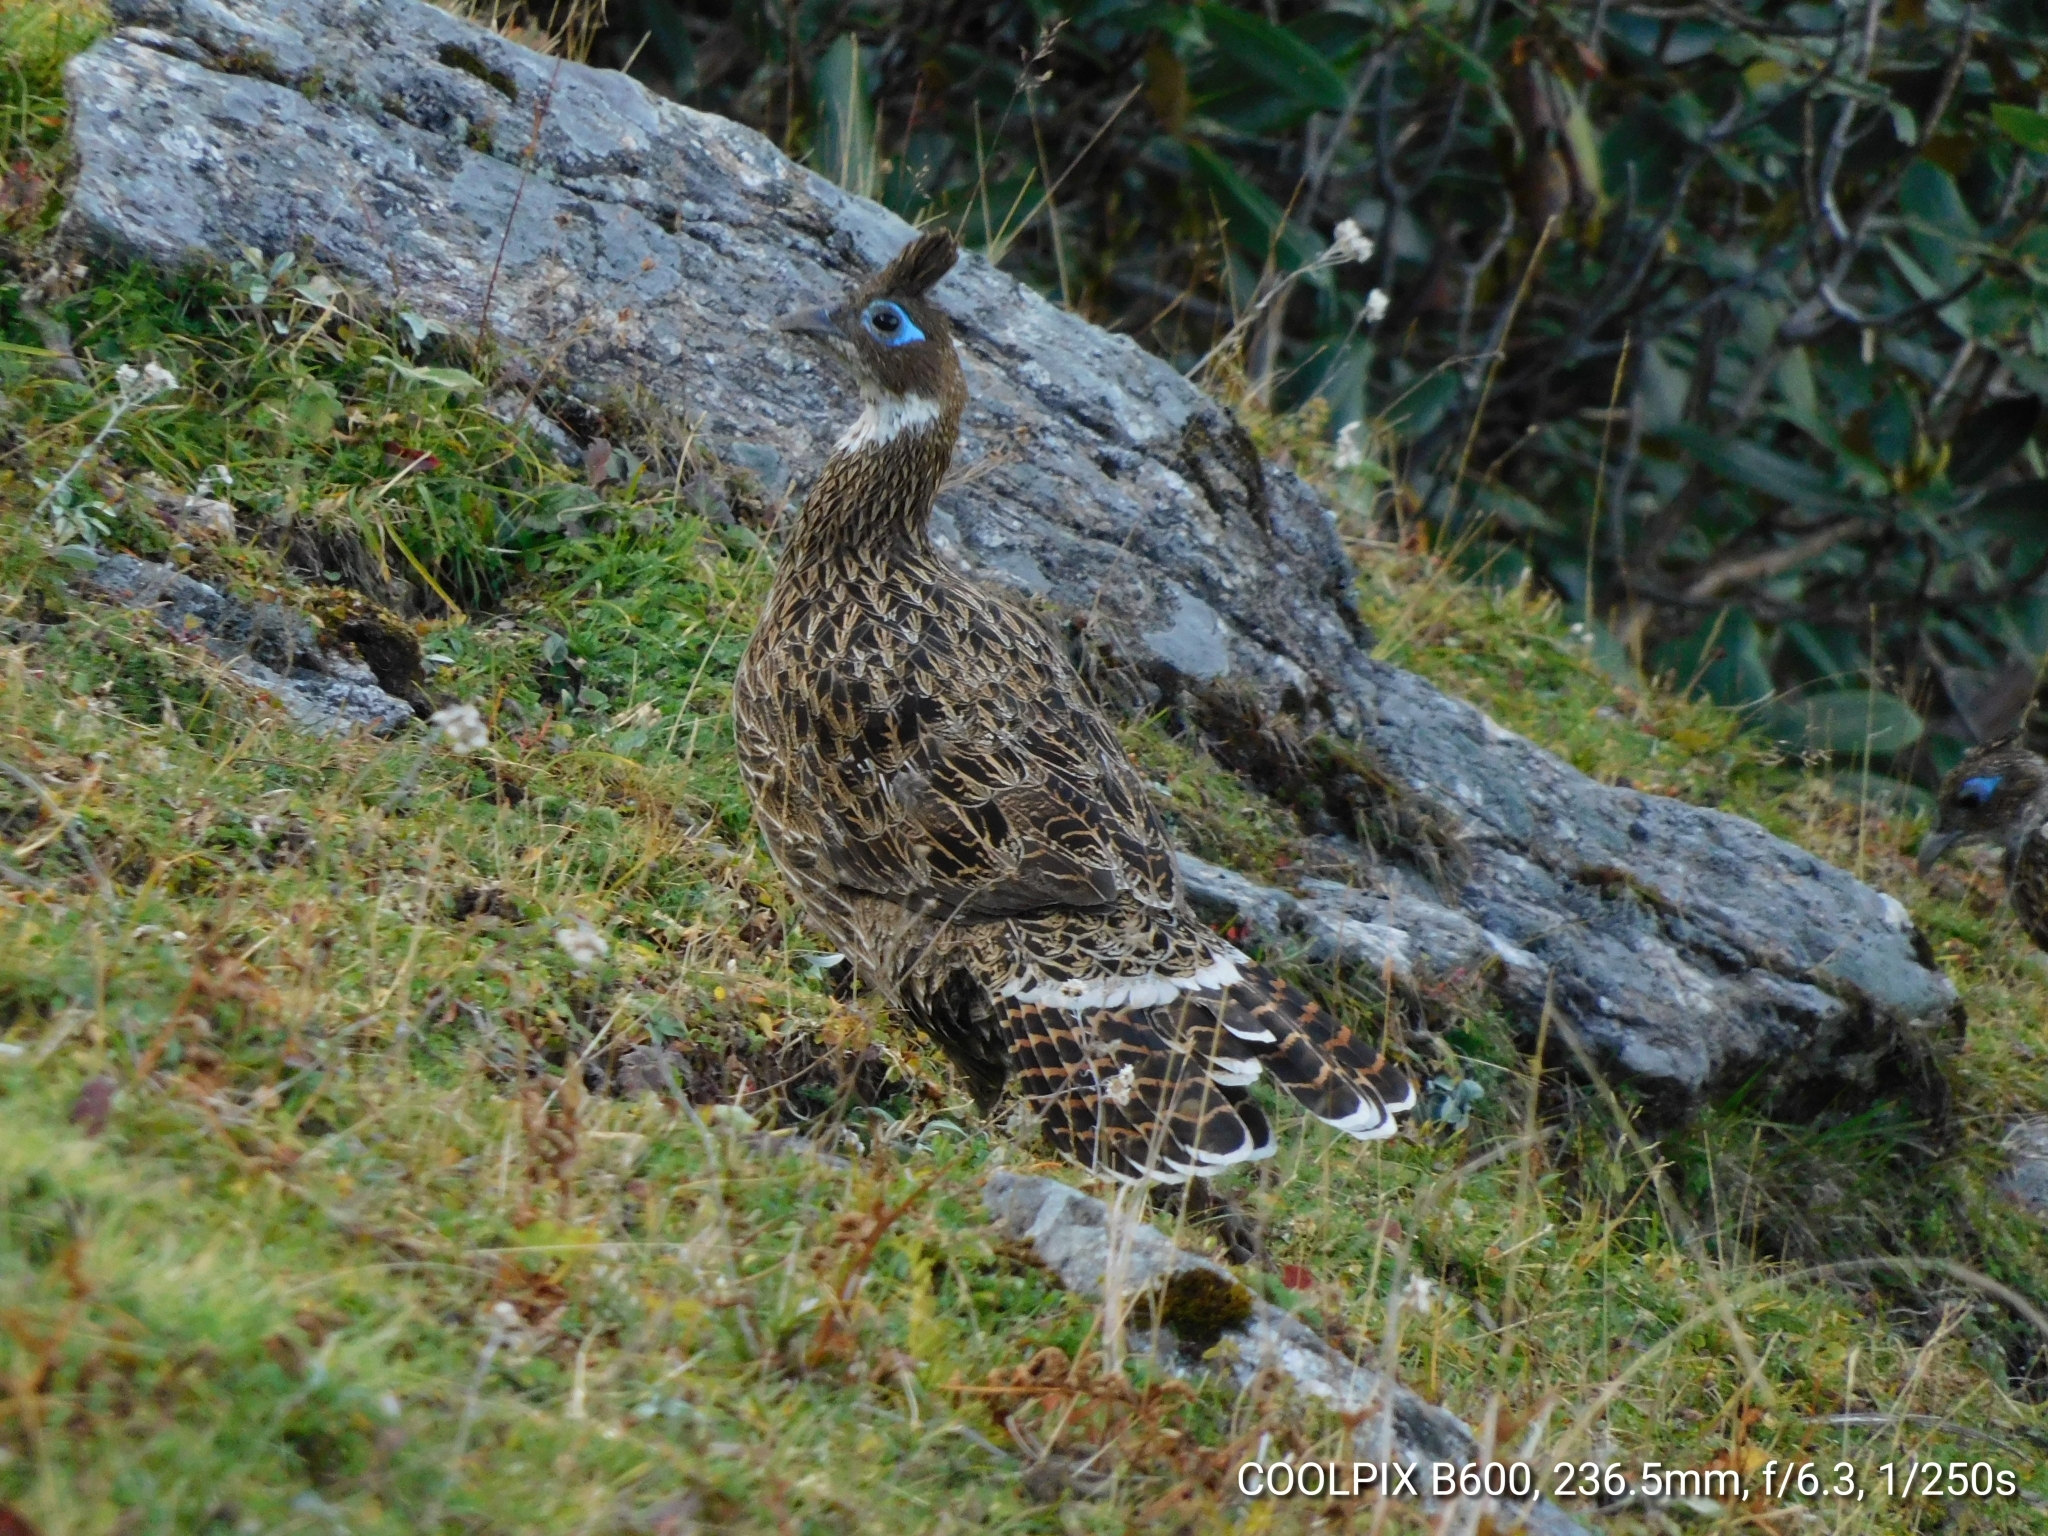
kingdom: Animalia
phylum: Chordata
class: Aves
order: Galliformes
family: Phasianidae
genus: Lophophorus
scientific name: Lophophorus impejanus
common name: Himalayan monal
